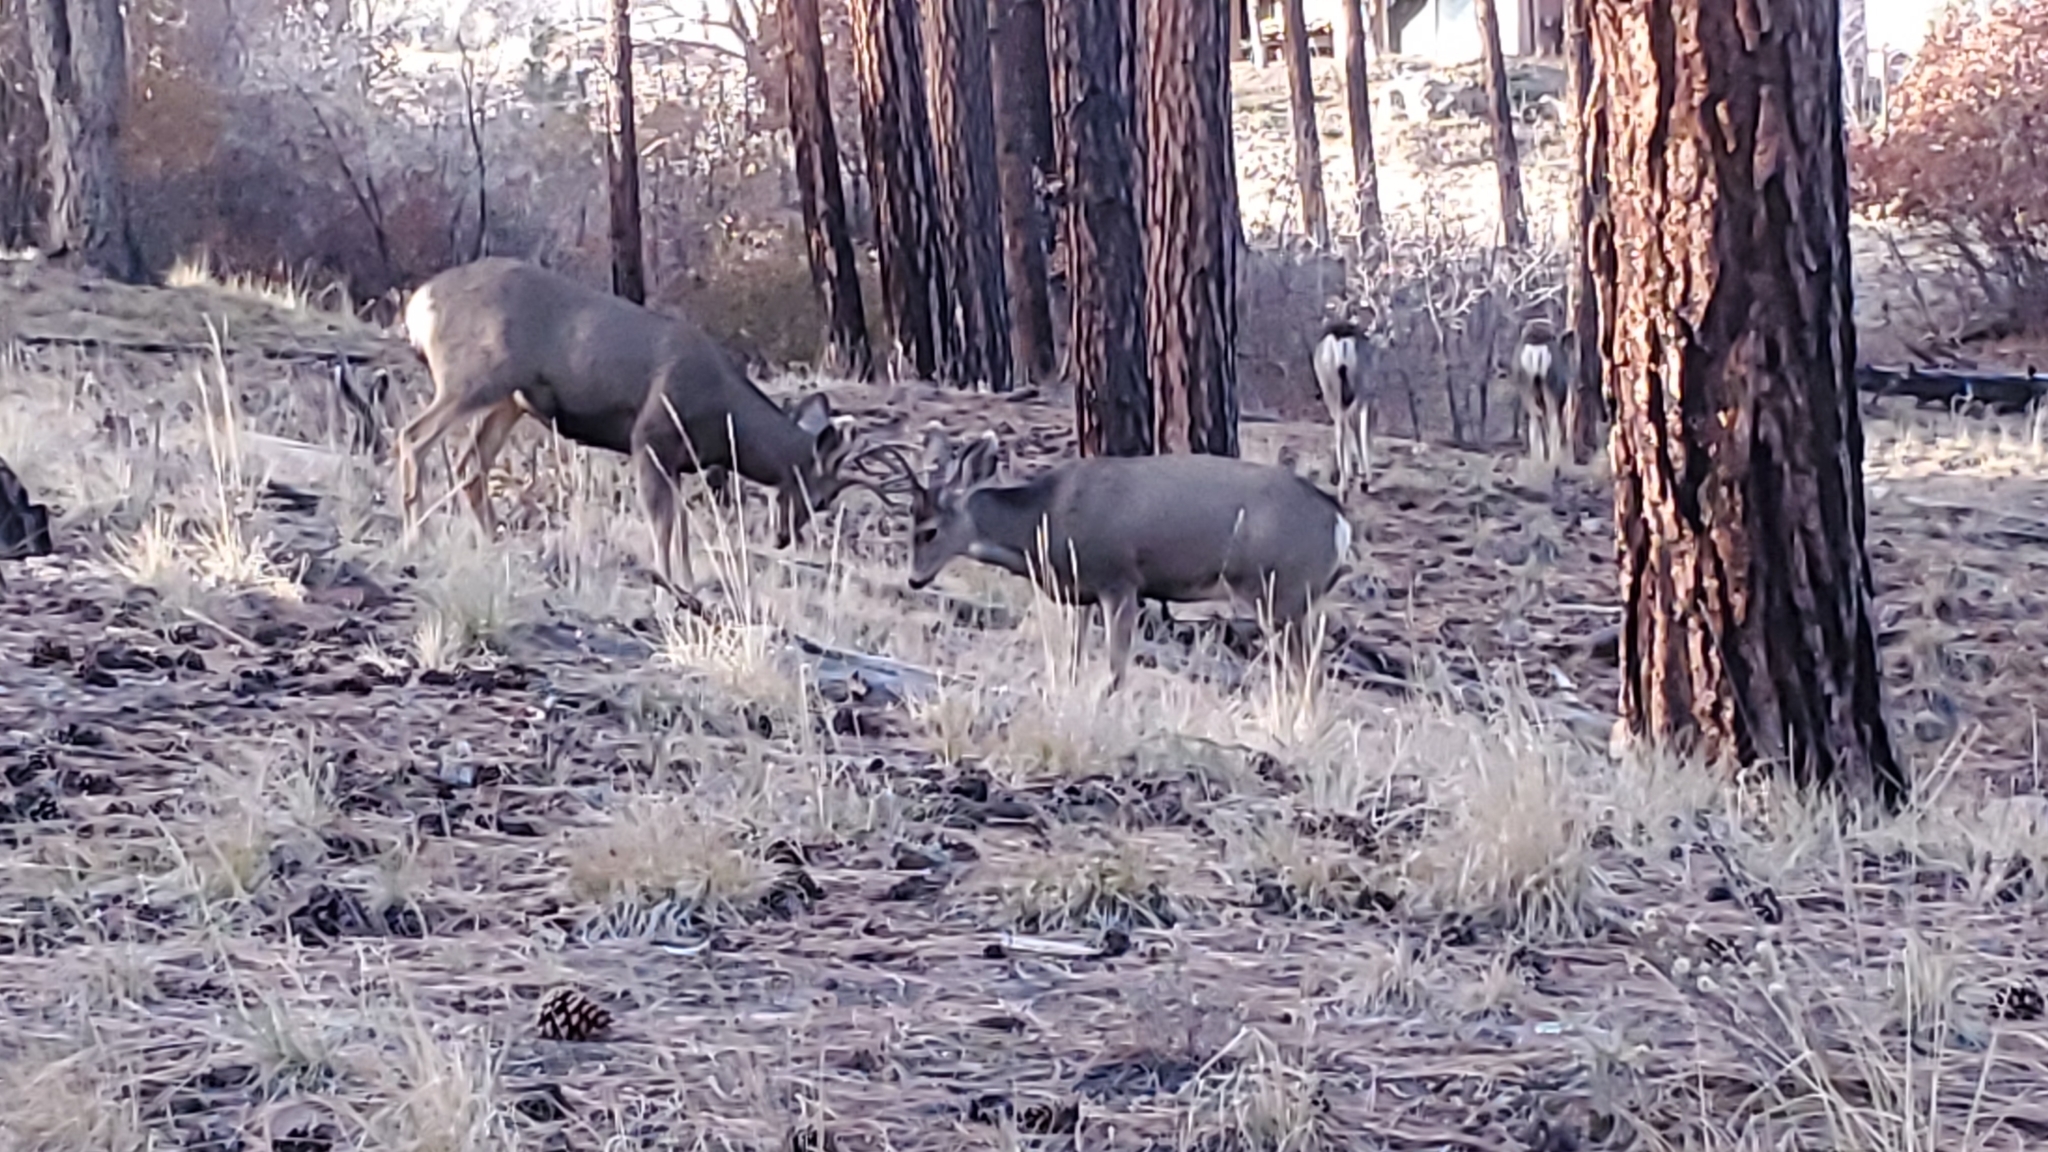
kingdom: Animalia
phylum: Chordata
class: Mammalia
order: Artiodactyla
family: Cervidae
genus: Odocoileus
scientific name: Odocoileus hemionus
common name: Mule deer
